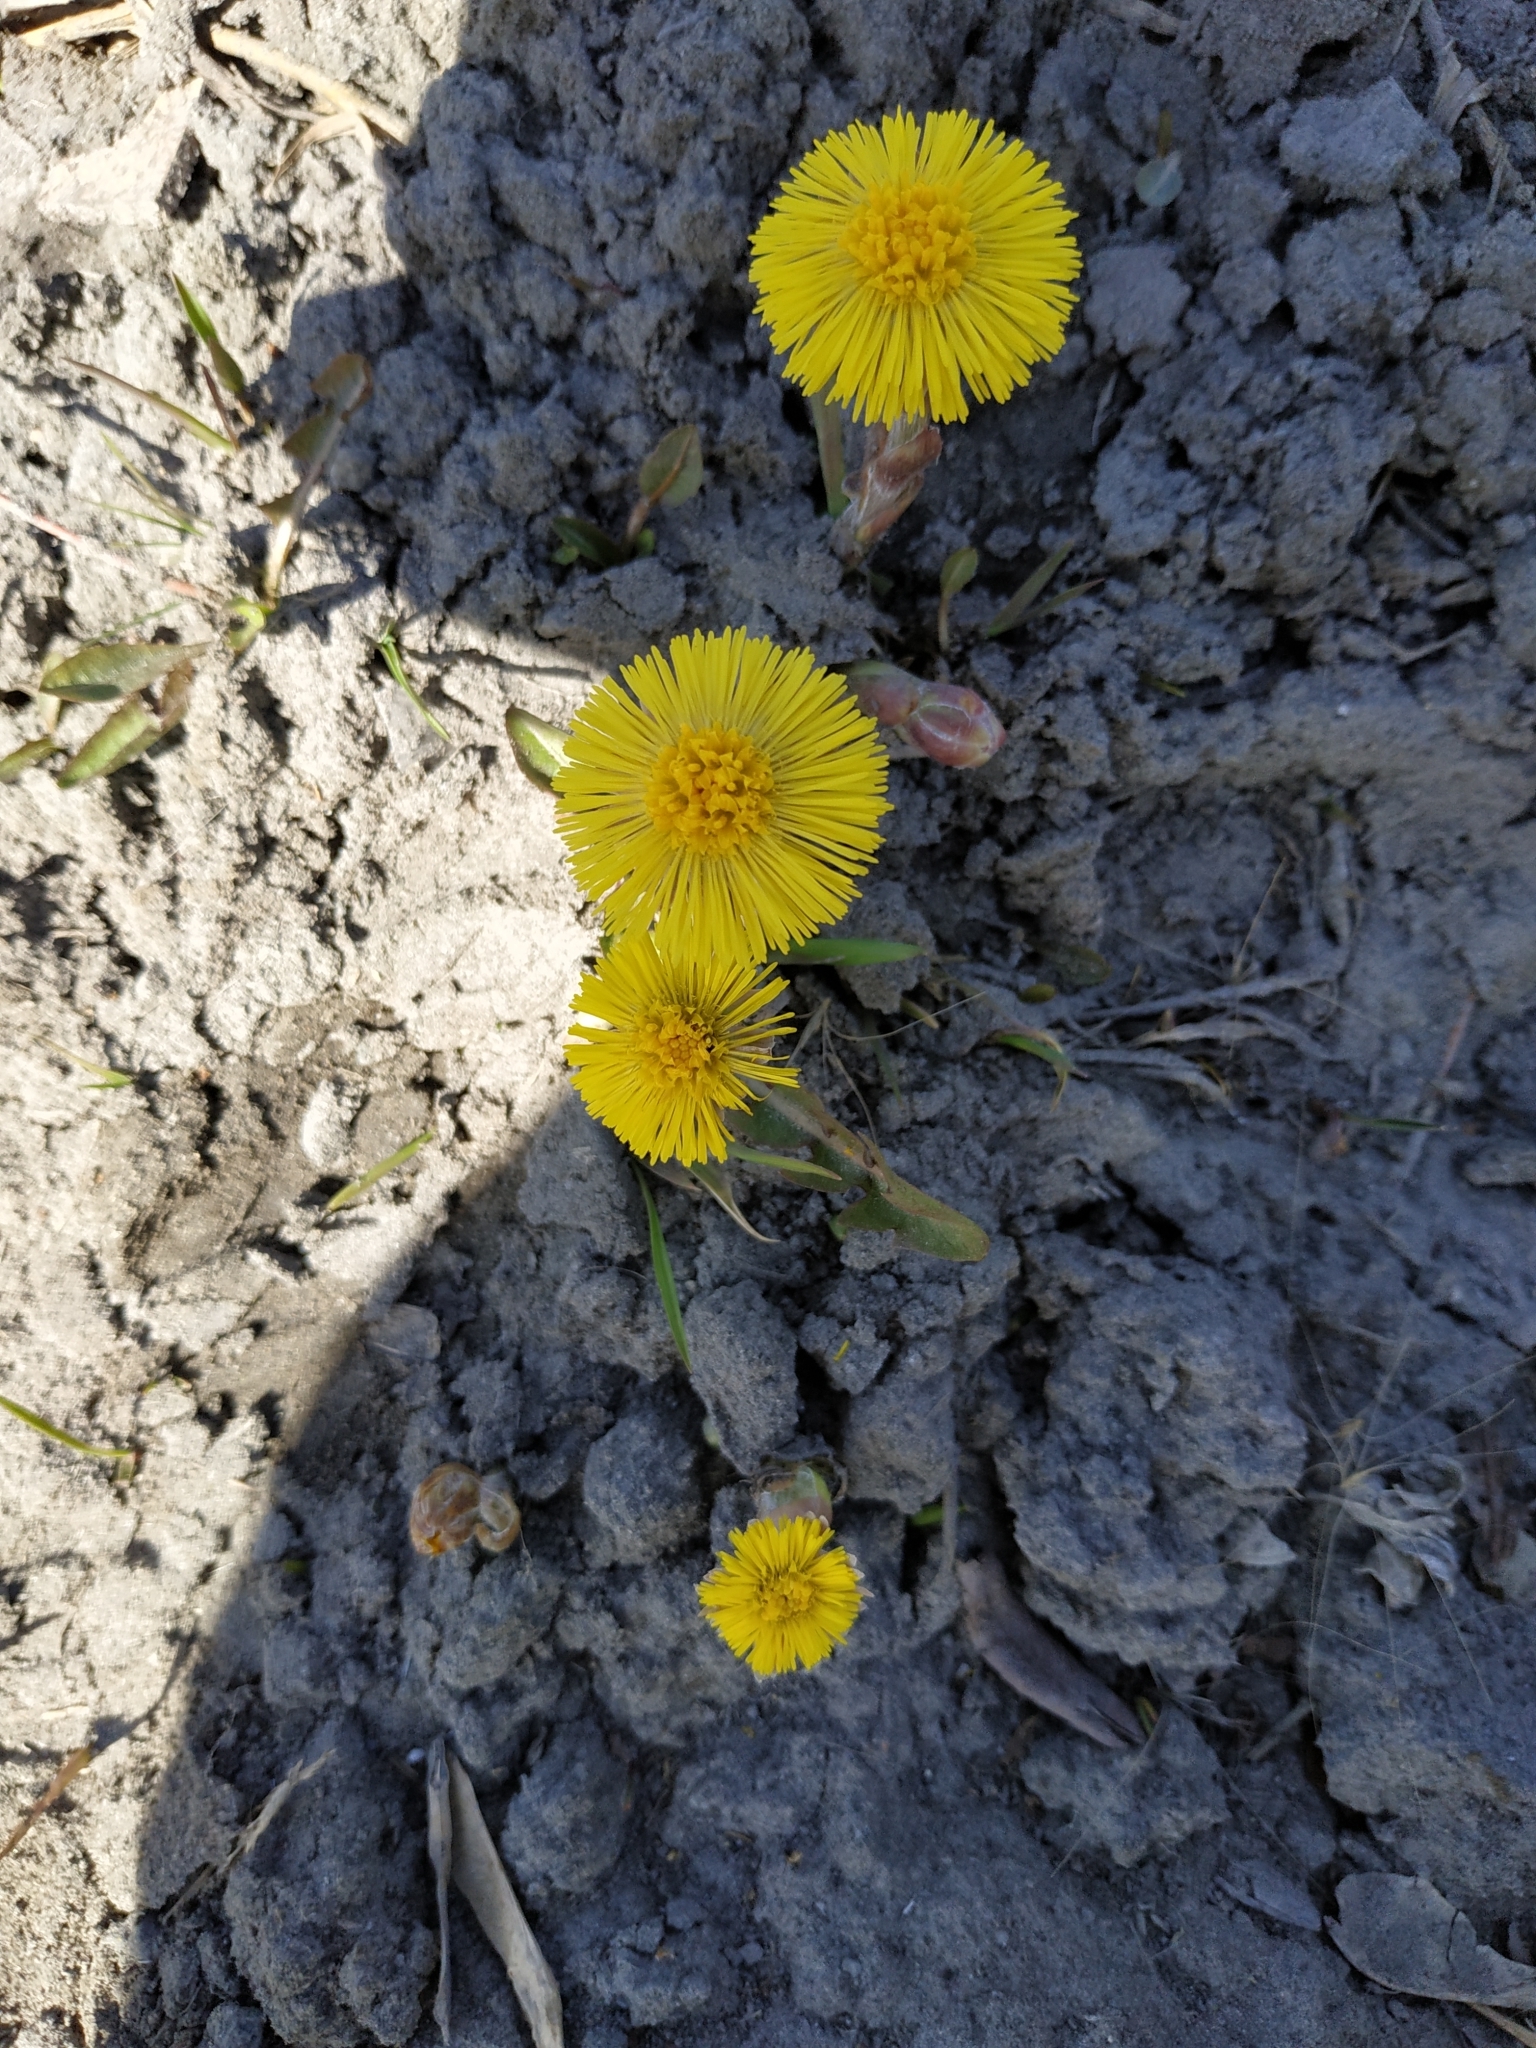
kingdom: Plantae
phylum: Tracheophyta
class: Magnoliopsida
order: Asterales
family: Asteraceae
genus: Tussilago
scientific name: Tussilago farfara
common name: Coltsfoot
